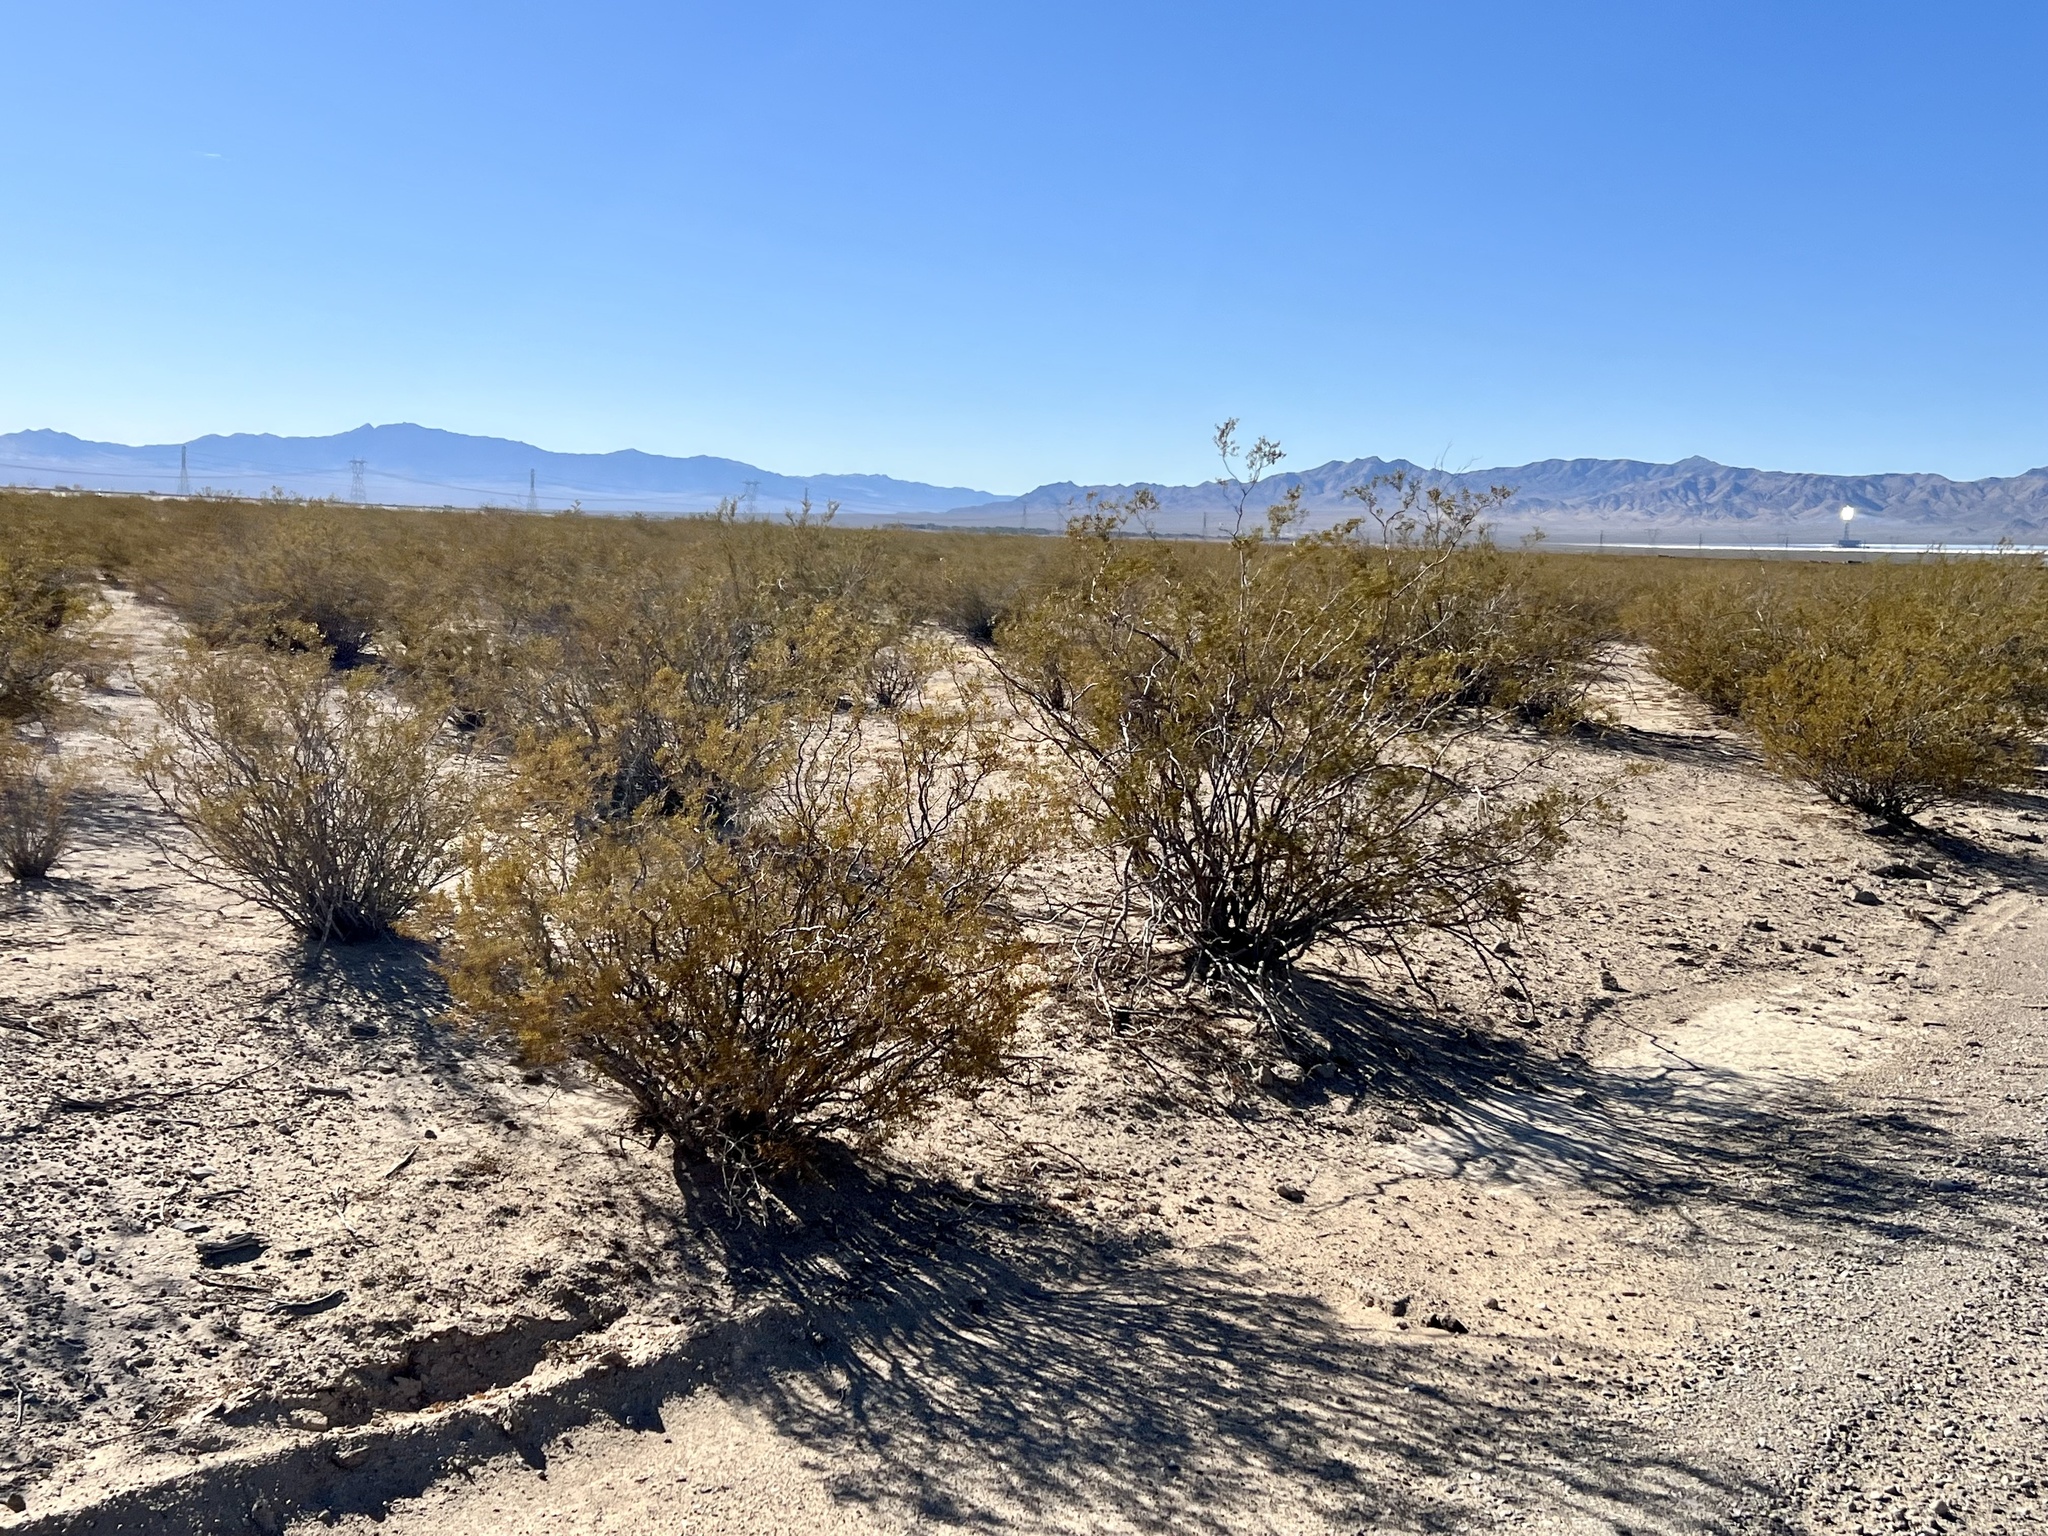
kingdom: Plantae
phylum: Tracheophyta
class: Magnoliopsida
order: Zygophyllales
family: Zygophyllaceae
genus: Larrea
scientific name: Larrea tridentata
